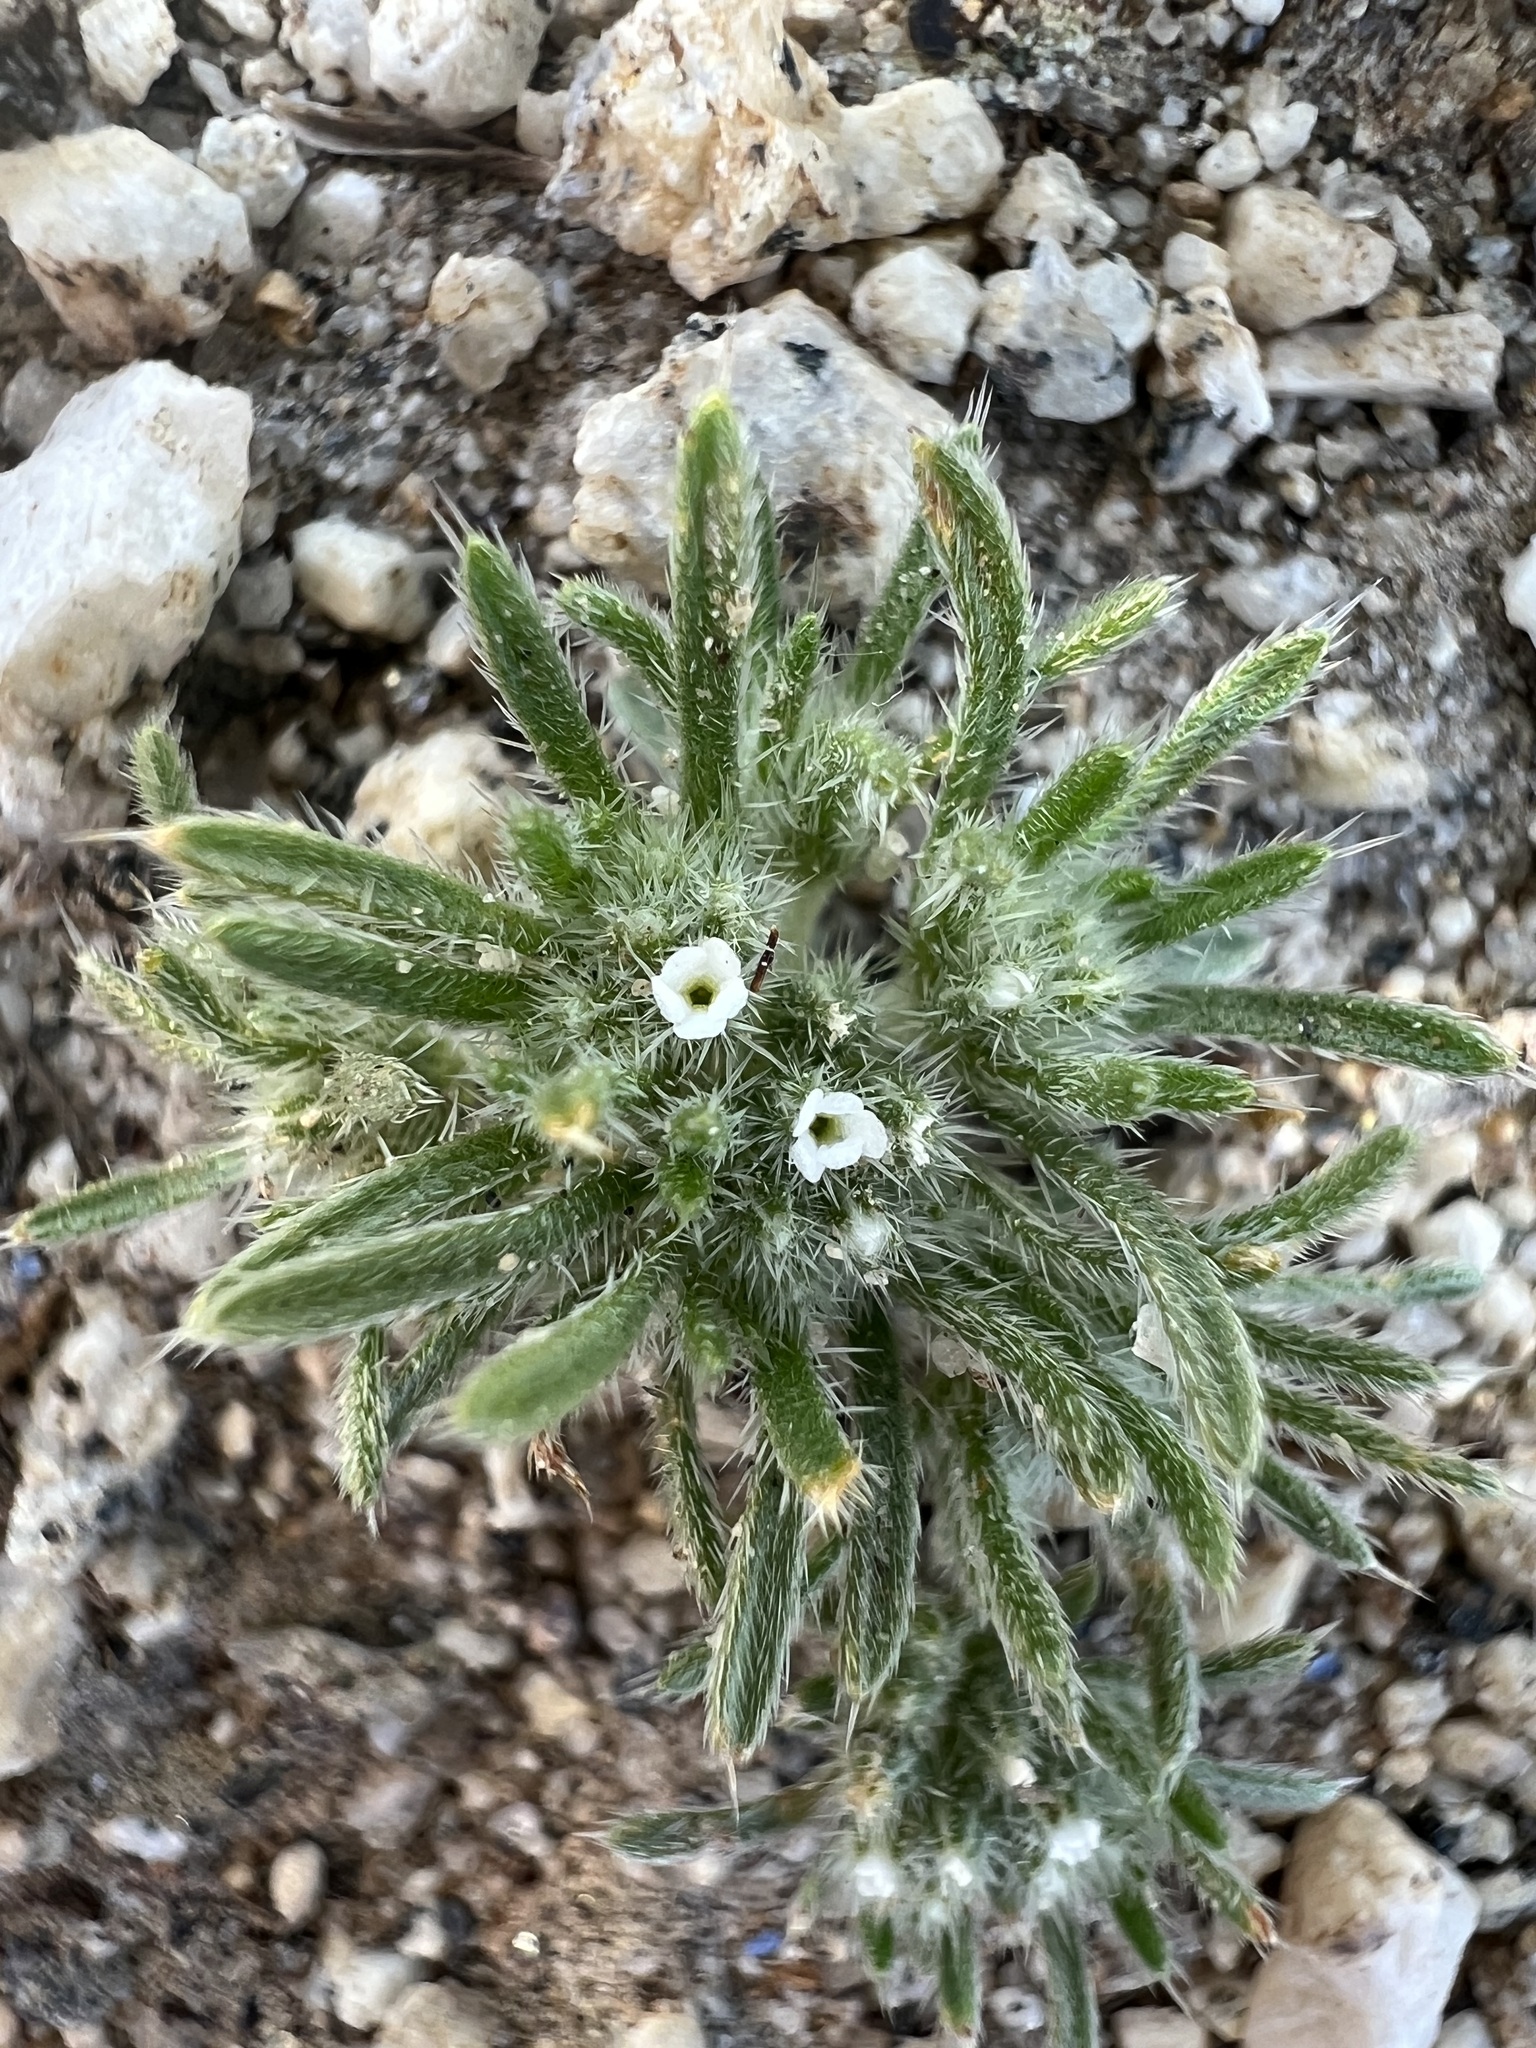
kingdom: Plantae
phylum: Tracheophyta
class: Magnoliopsida
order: Boraginales
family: Boraginaceae
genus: Greeneocharis
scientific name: Greeneocharis circumscissa
